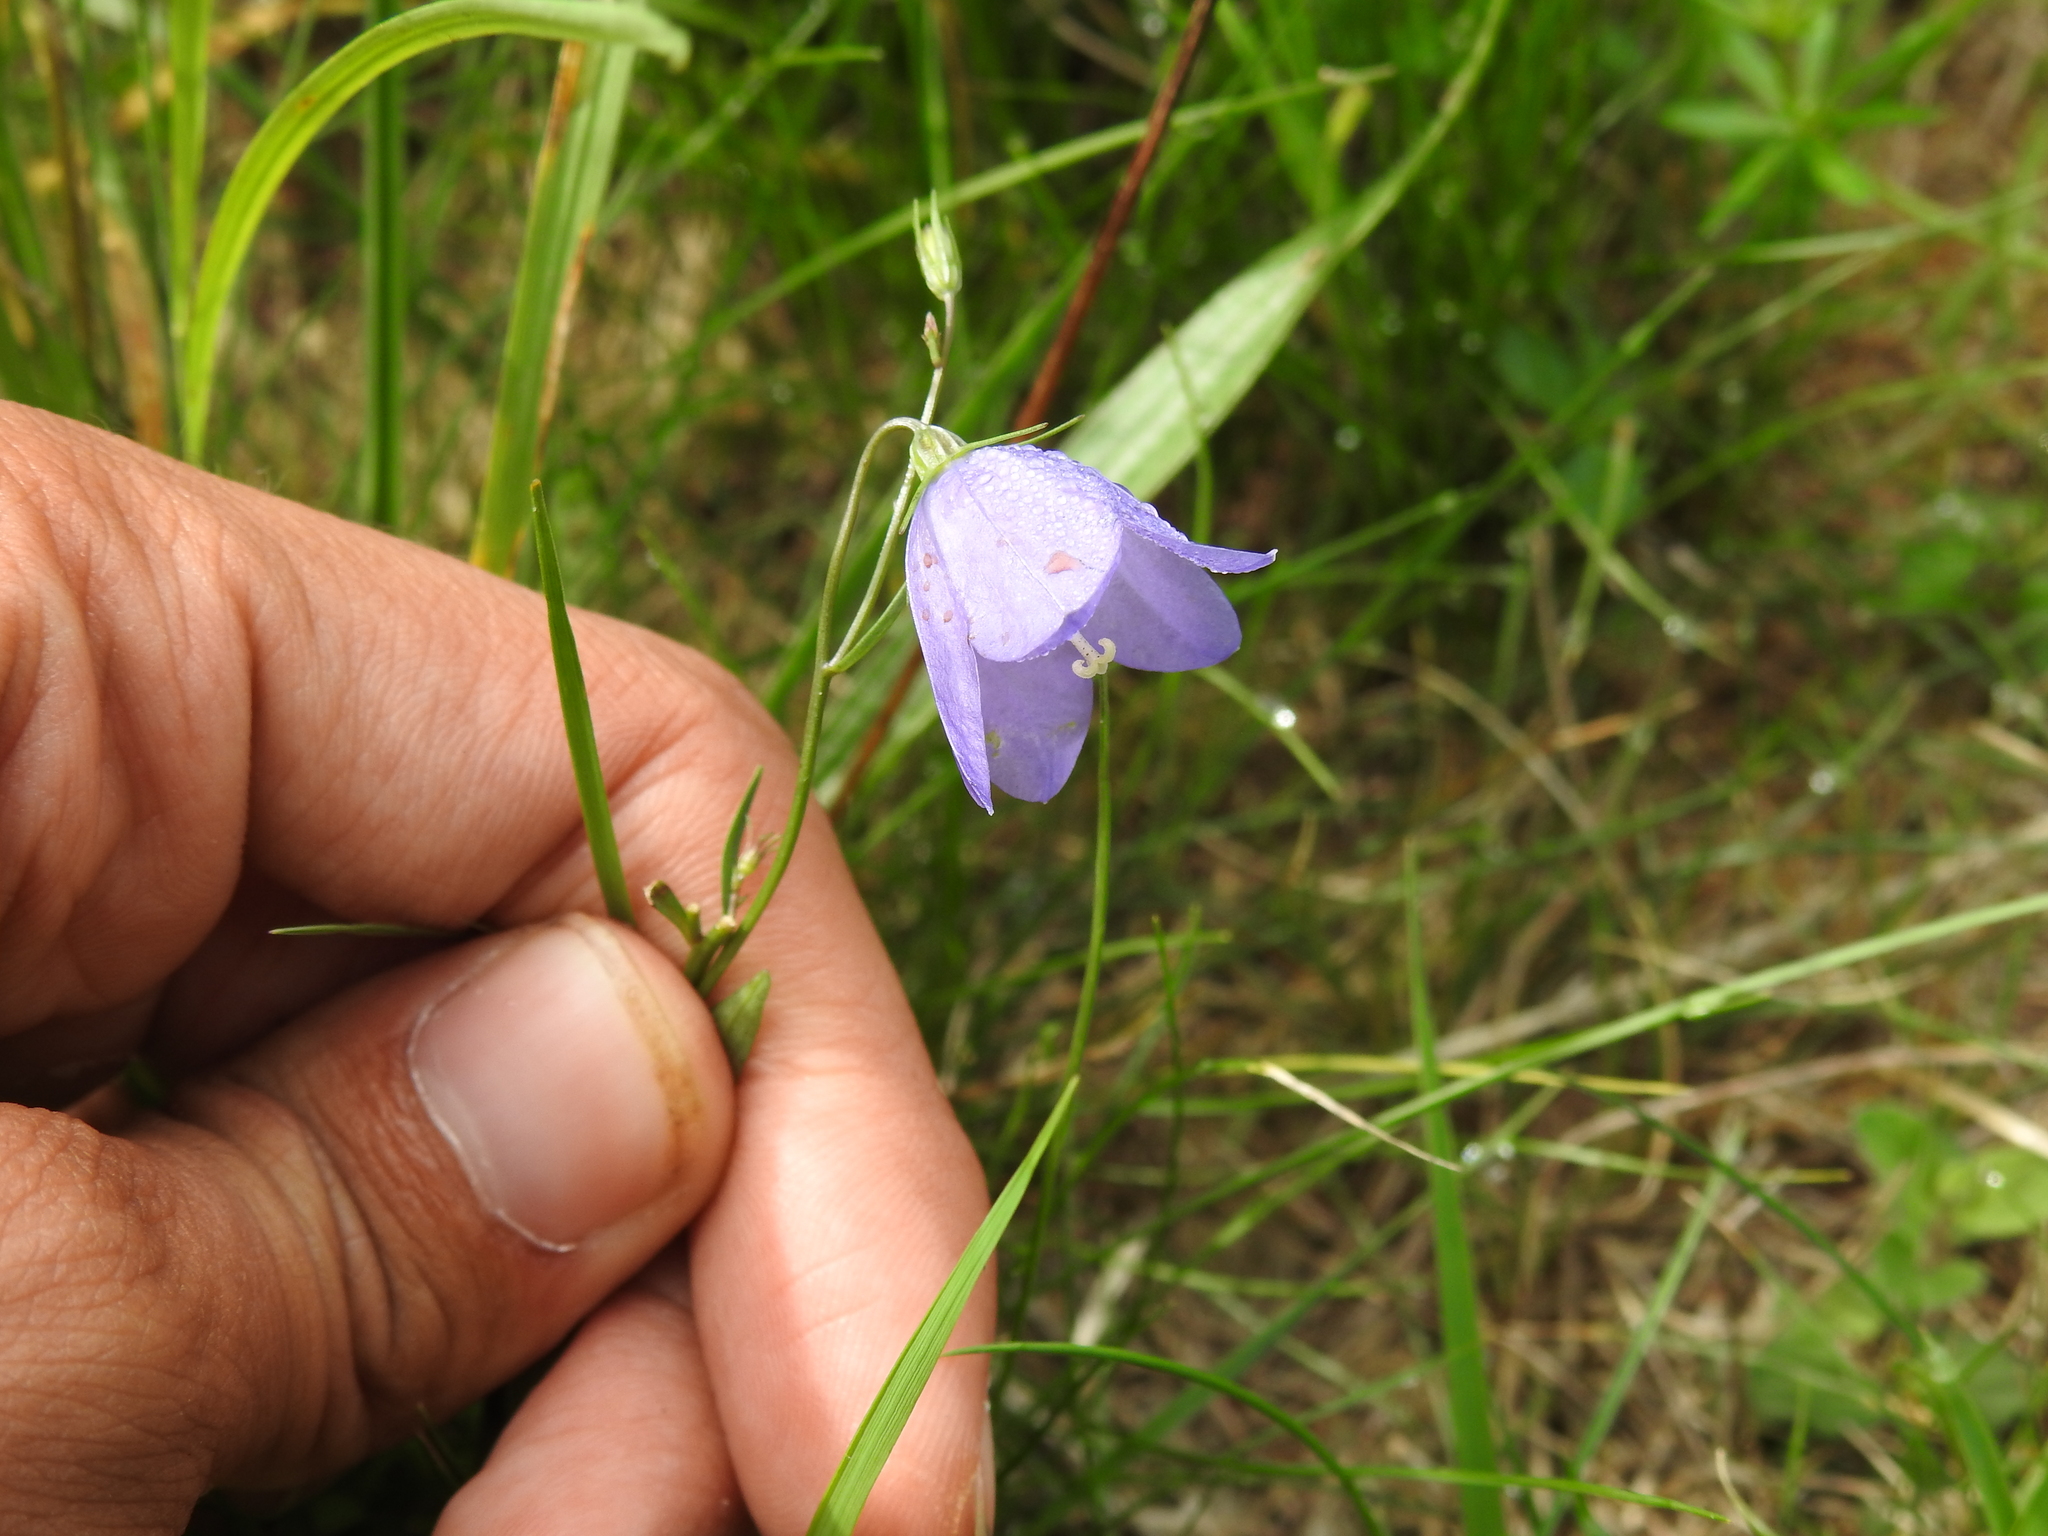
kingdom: Plantae
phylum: Tracheophyta
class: Magnoliopsida
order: Asterales
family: Campanulaceae
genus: Campanula
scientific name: Campanula rotundifolia
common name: Harebell
